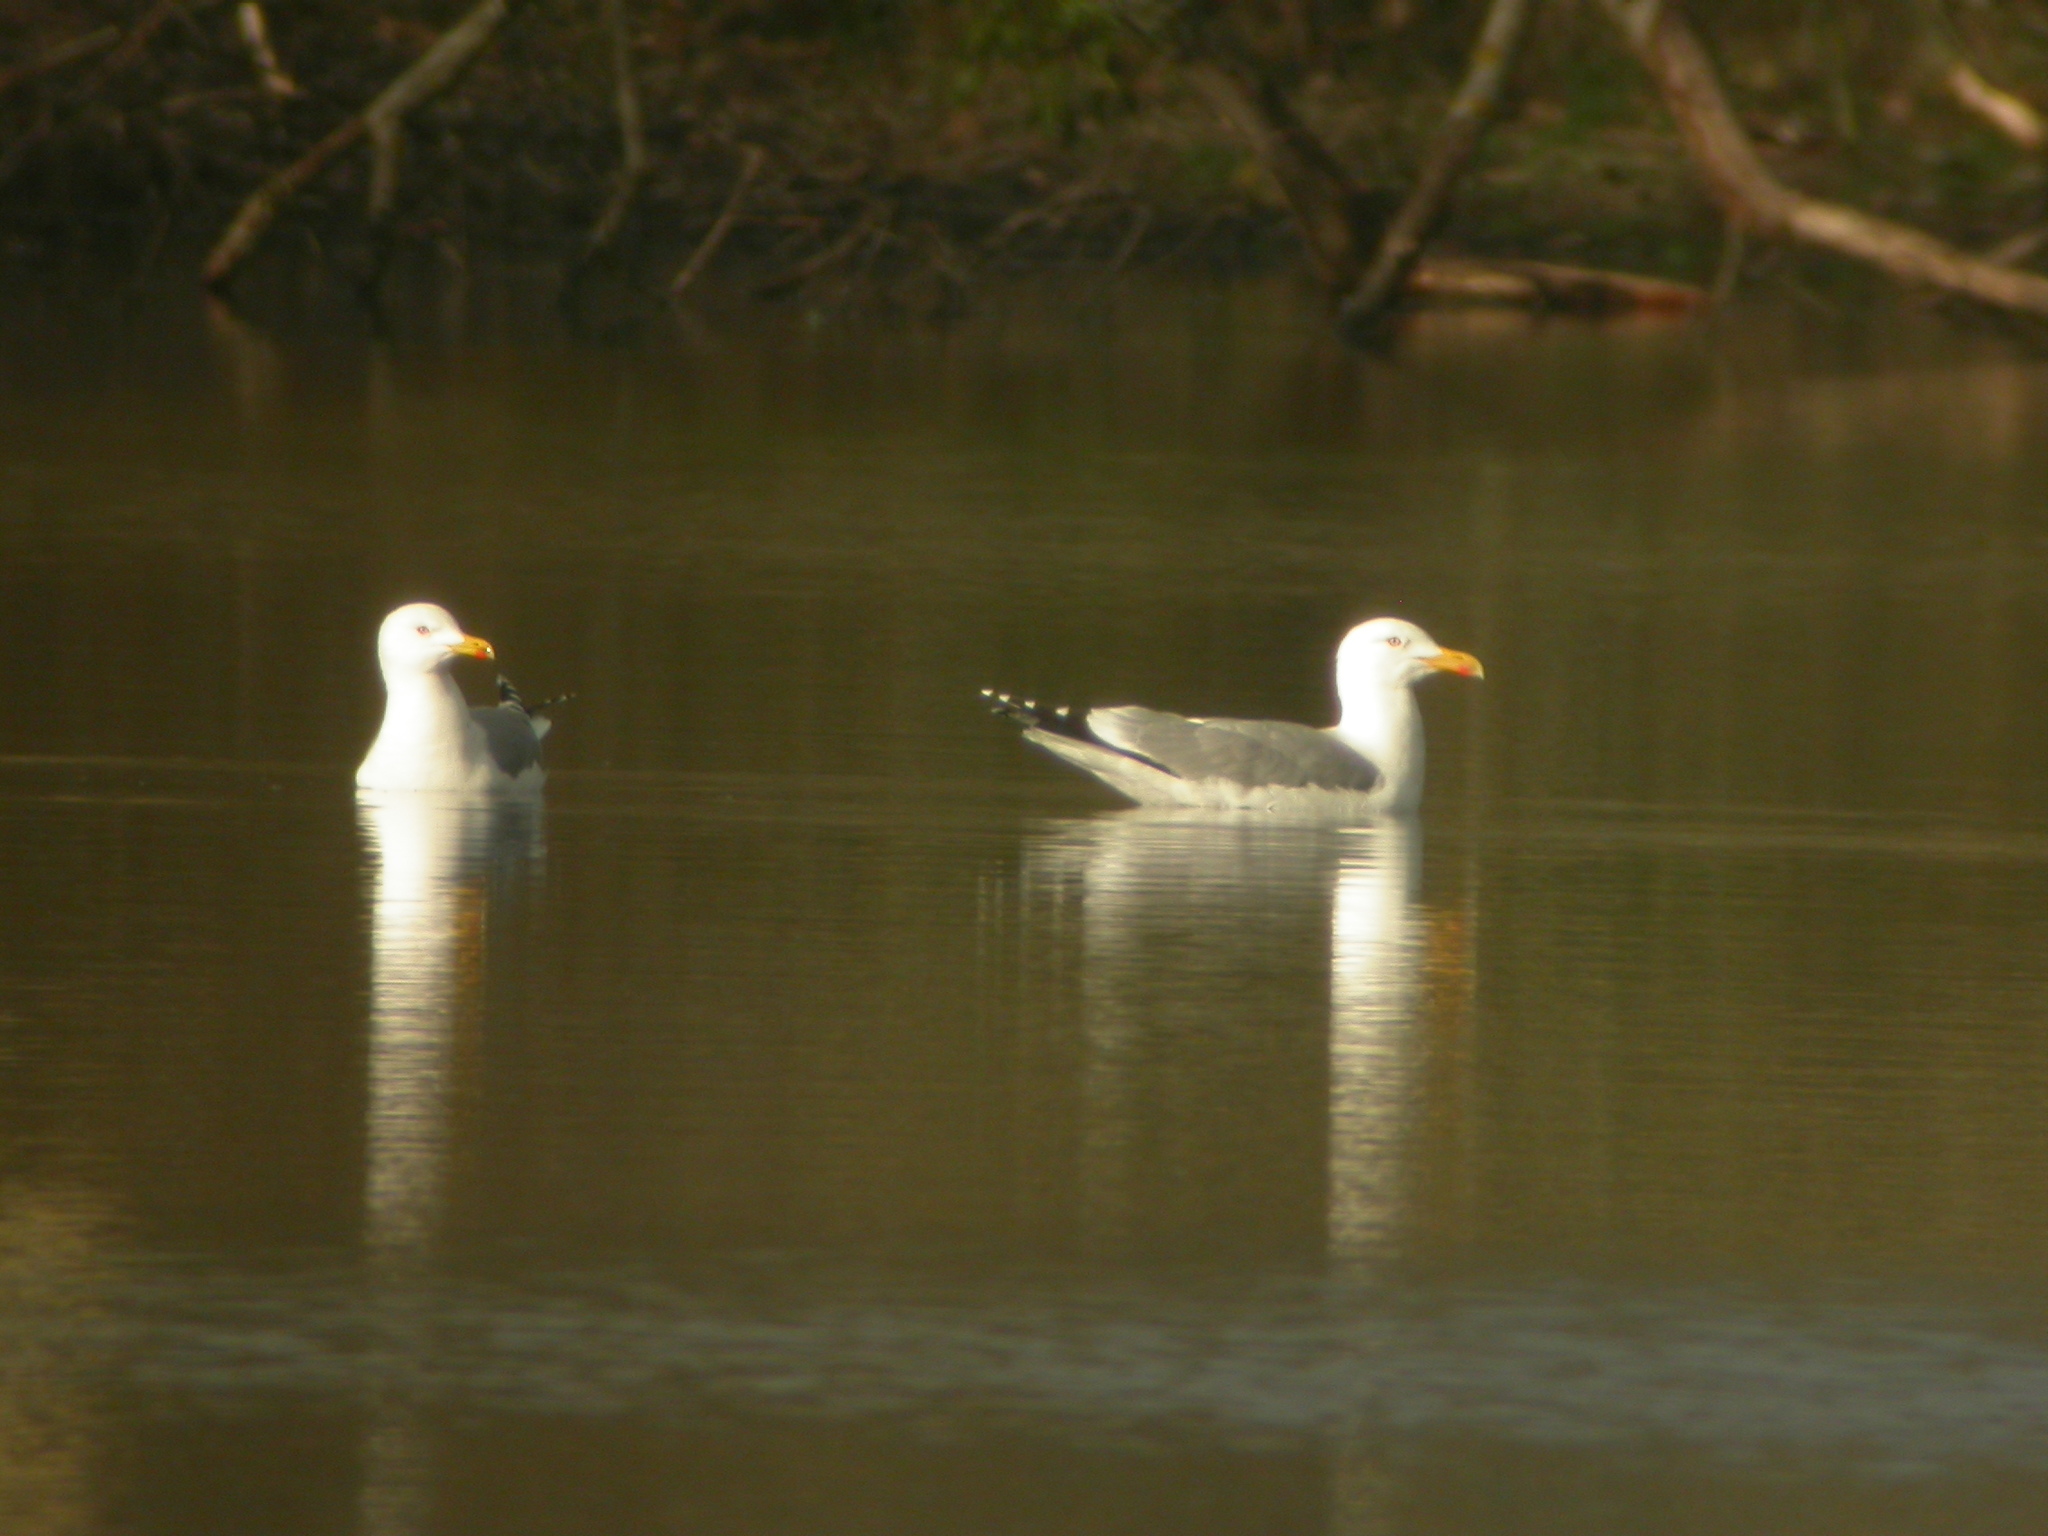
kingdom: Animalia
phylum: Chordata
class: Aves
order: Charadriiformes
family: Laridae
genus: Larus
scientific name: Larus michahellis
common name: Yellow-legged gull
